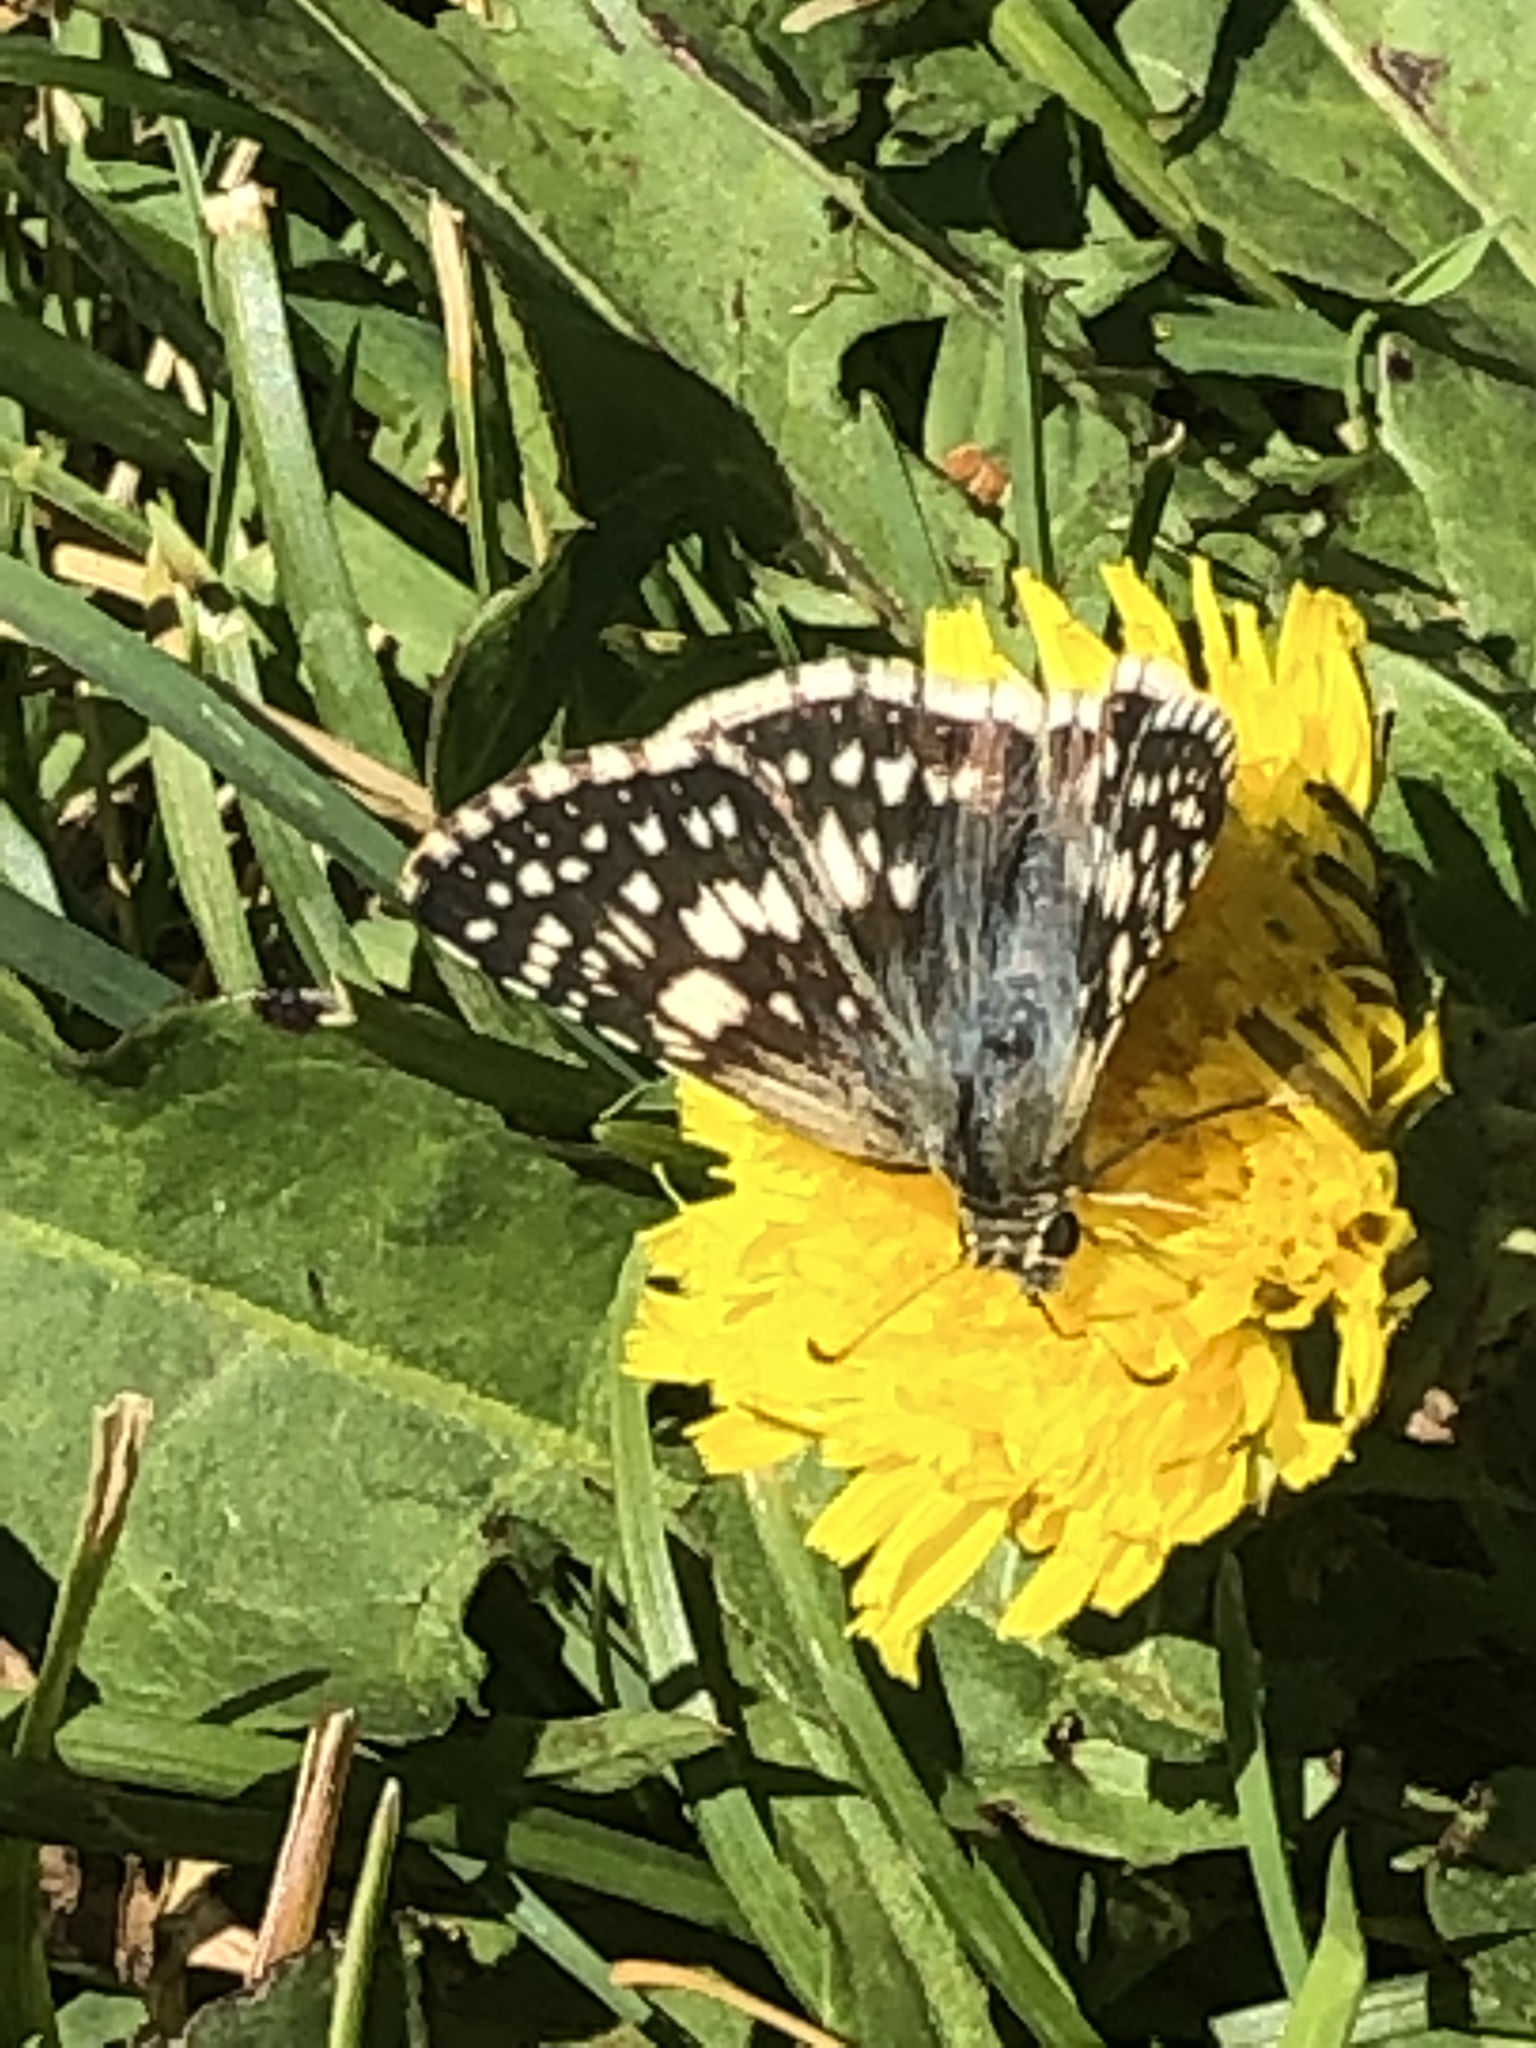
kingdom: Animalia
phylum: Arthropoda
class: Insecta
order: Lepidoptera
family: Hesperiidae
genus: Burnsius
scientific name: Burnsius communis
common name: Common checkered-skipper
